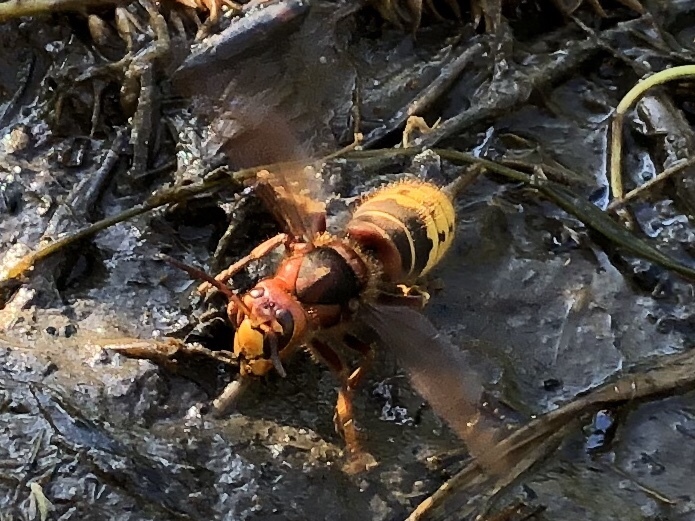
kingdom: Animalia
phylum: Arthropoda
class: Insecta
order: Hymenoptera
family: Vespidae
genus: Vespa
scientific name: Vespa crabro
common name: Hornet
